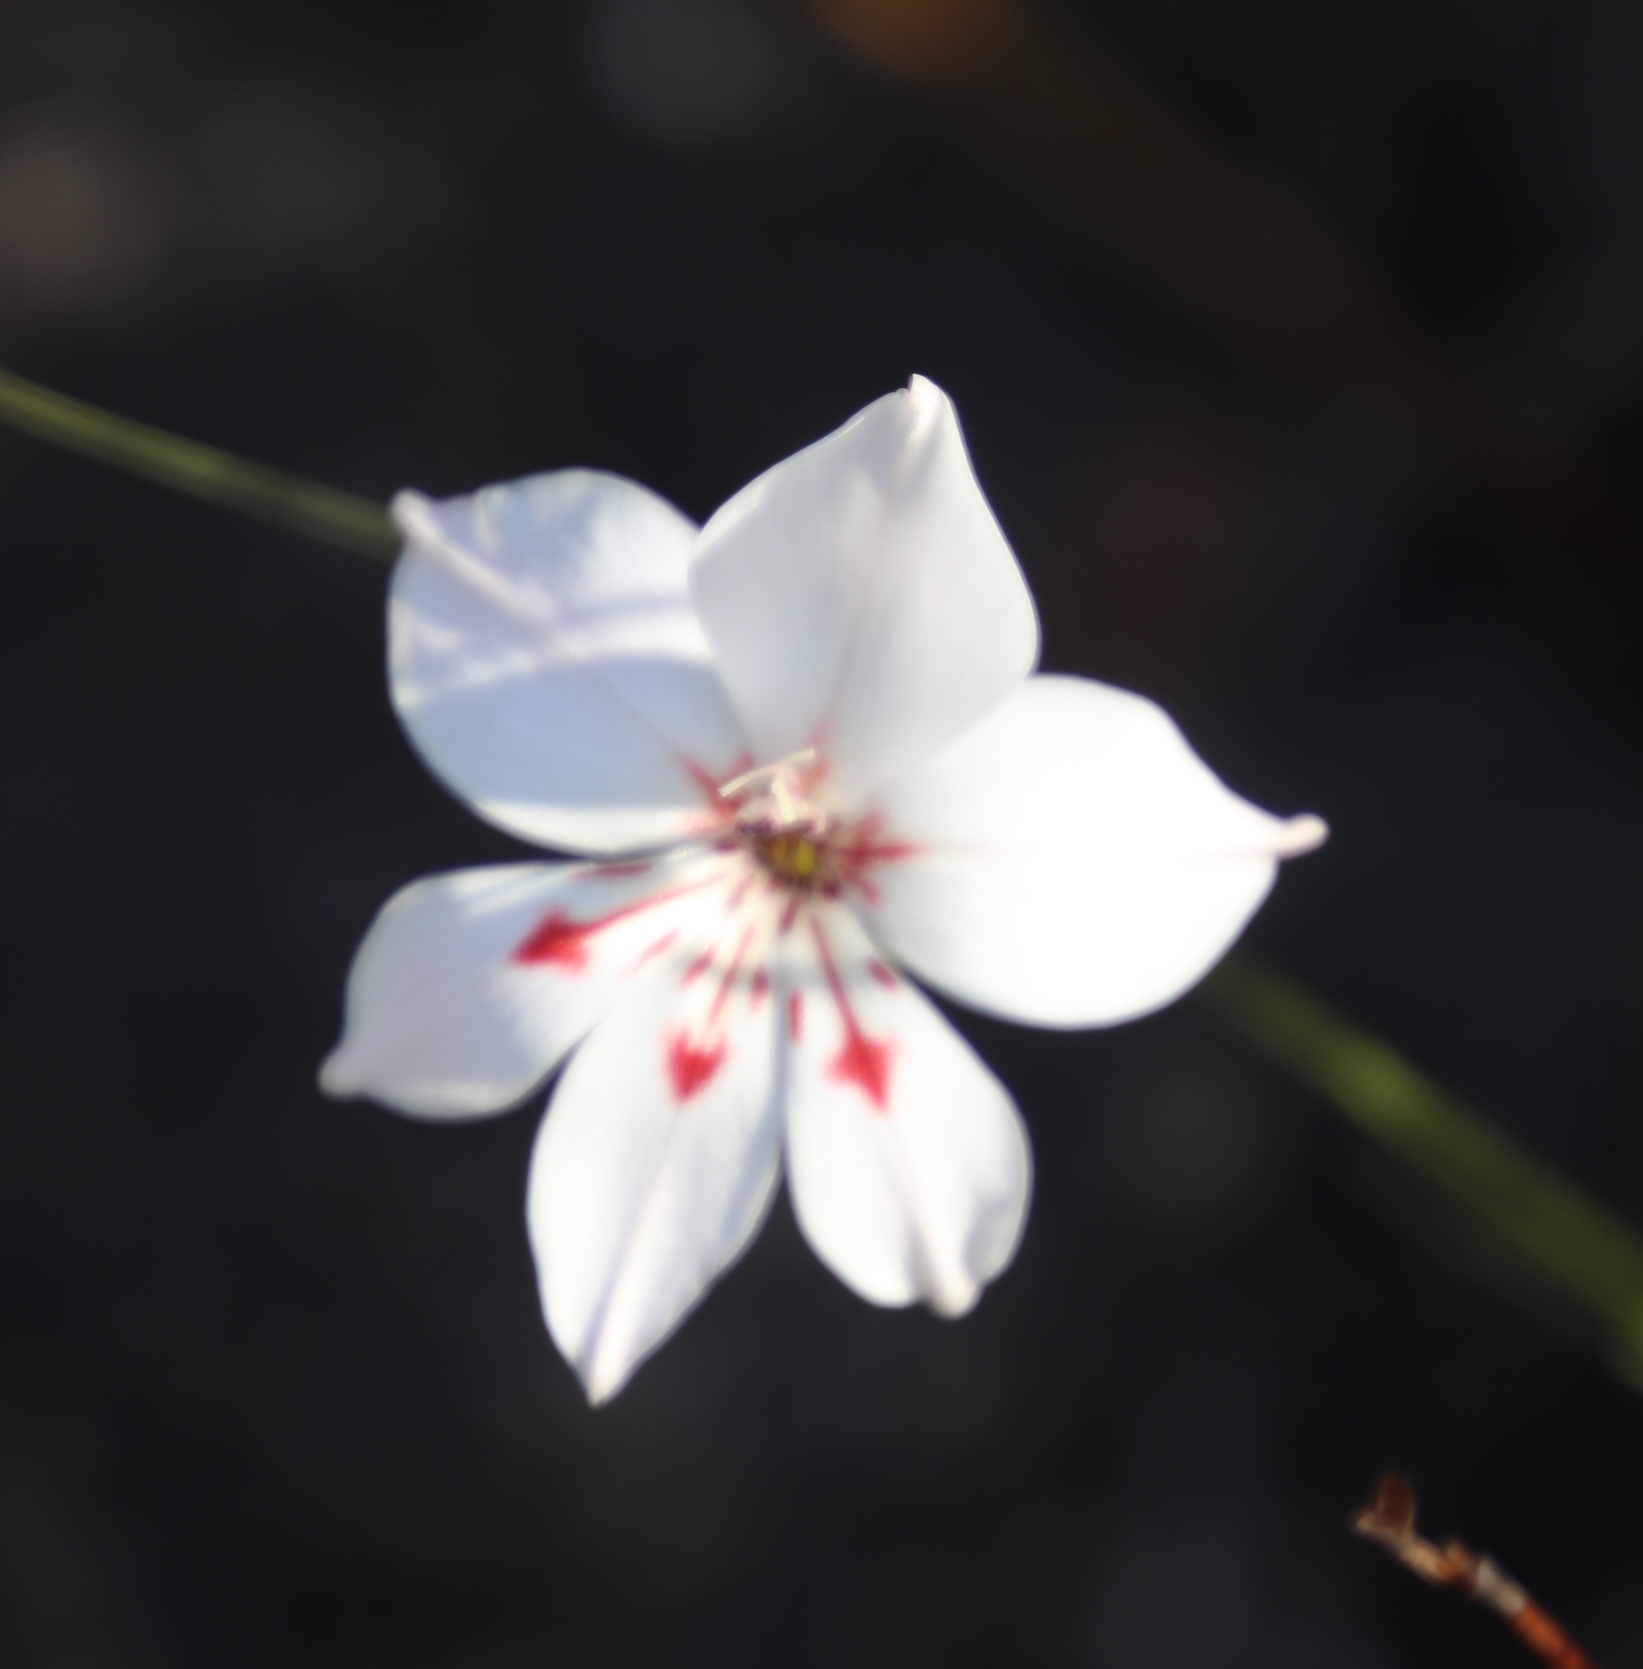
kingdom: Plantae
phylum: Tracheophyta
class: Liliopsida
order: Asparagales
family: Iridaceae
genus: Gladiolus
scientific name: Gladiolus debilis
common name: Painted-lady
